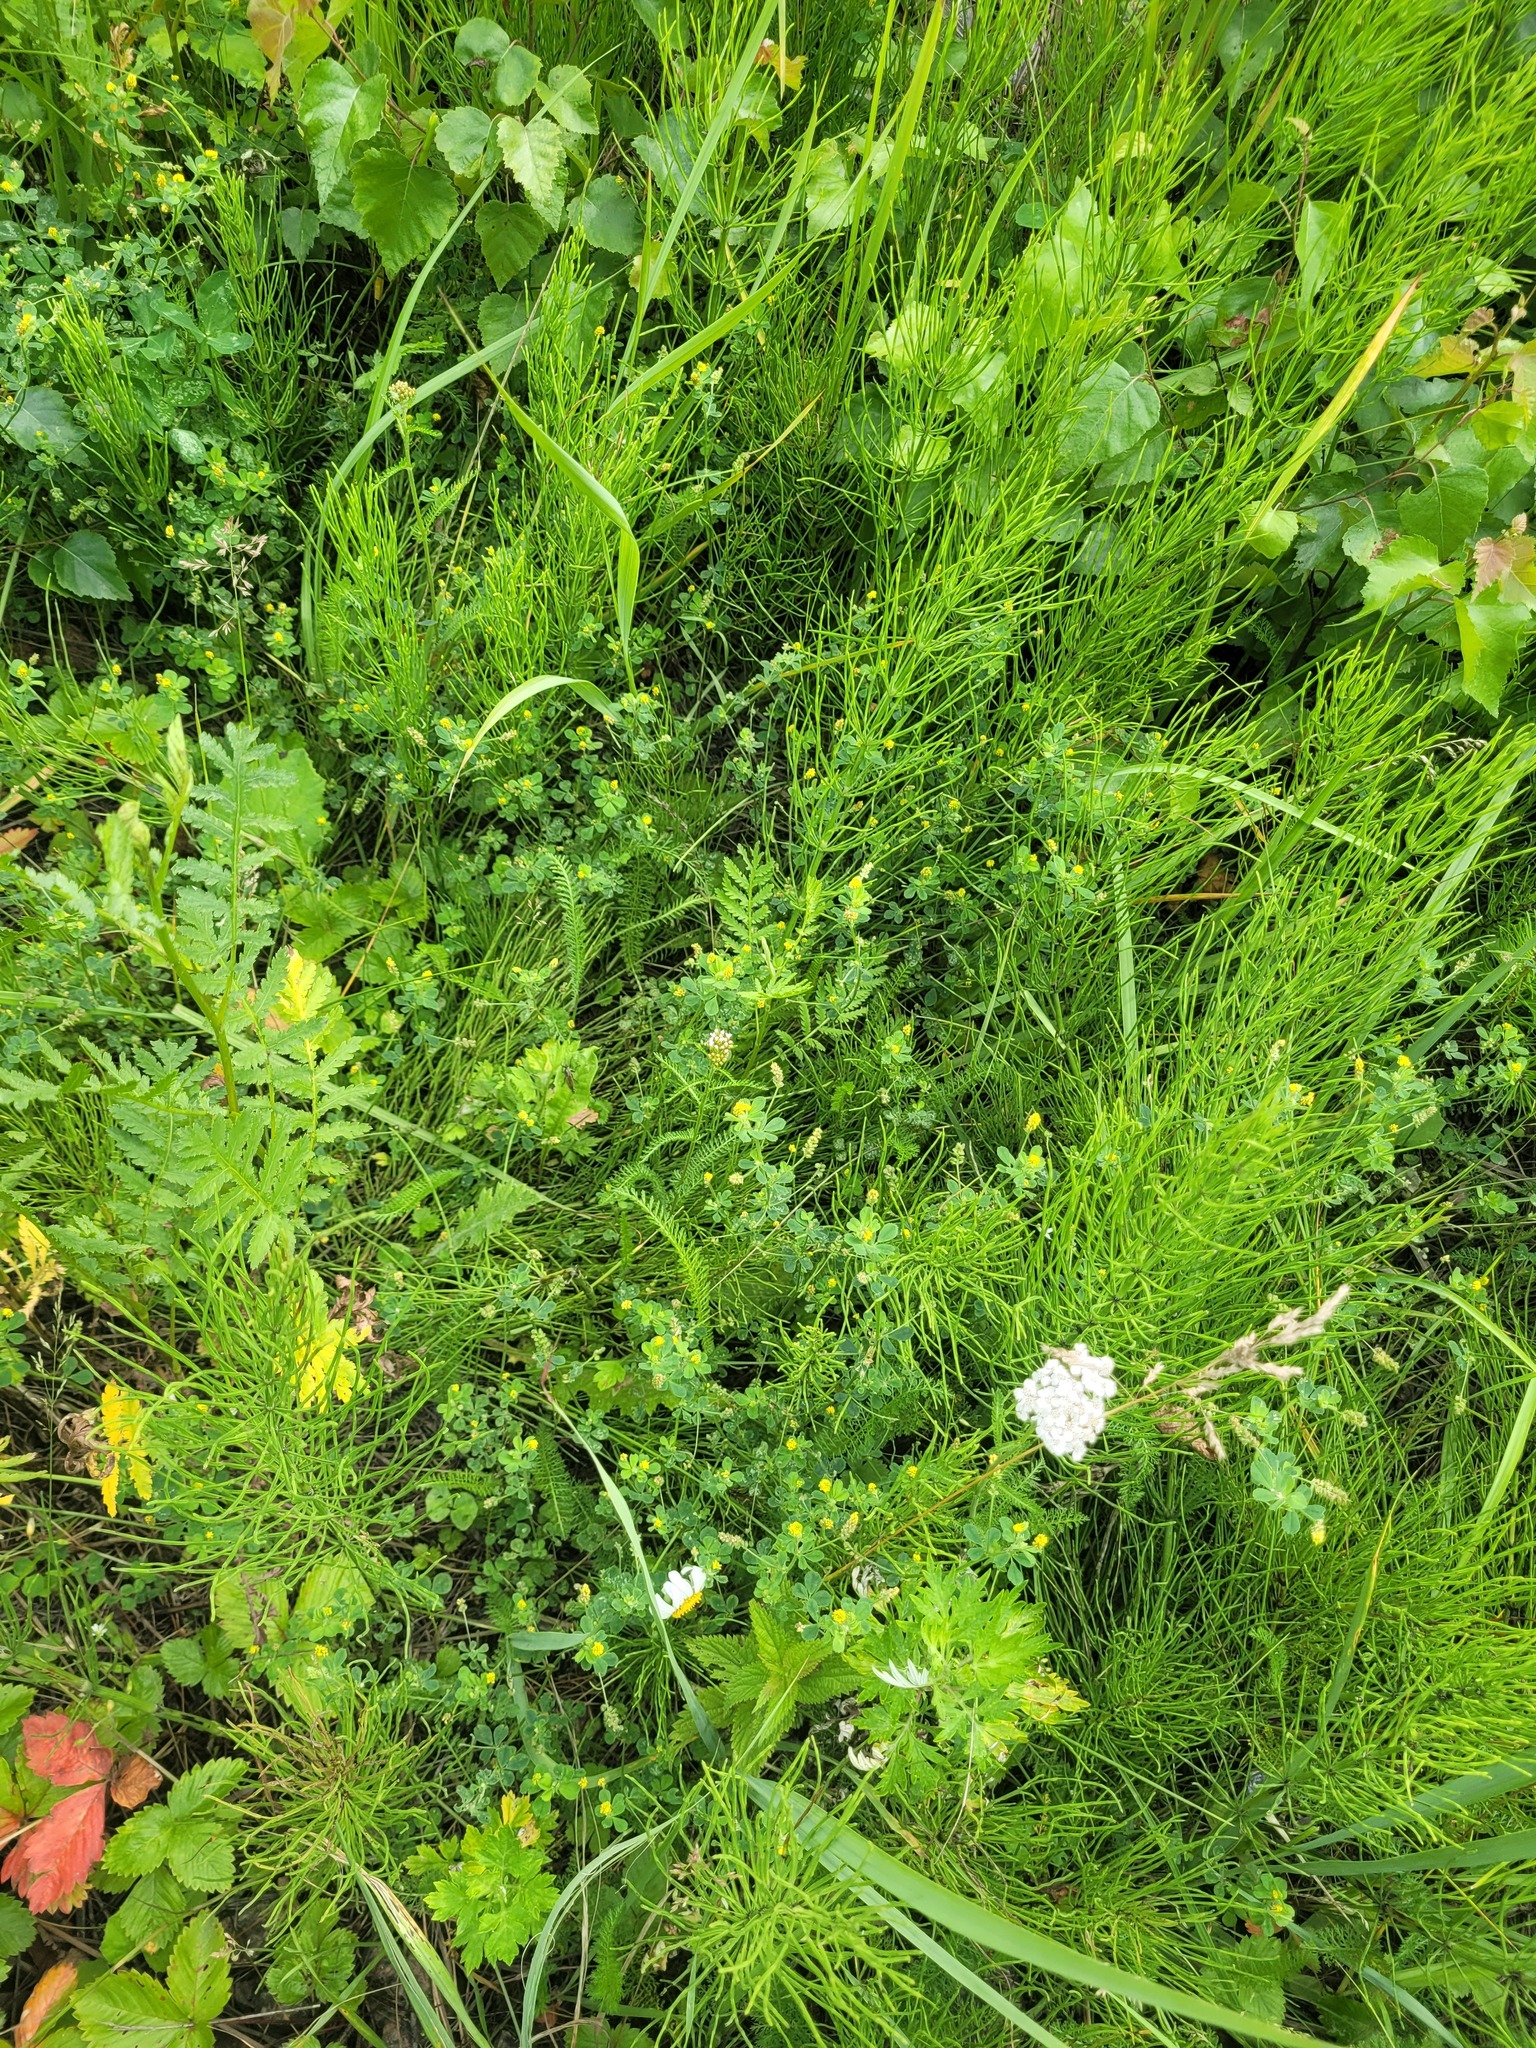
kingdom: Plantae
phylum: Tracheophyta
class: Magnoliopsida
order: Fabales
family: Fabaceae
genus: Medicago
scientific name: Medicago lupulina
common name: Black medick
